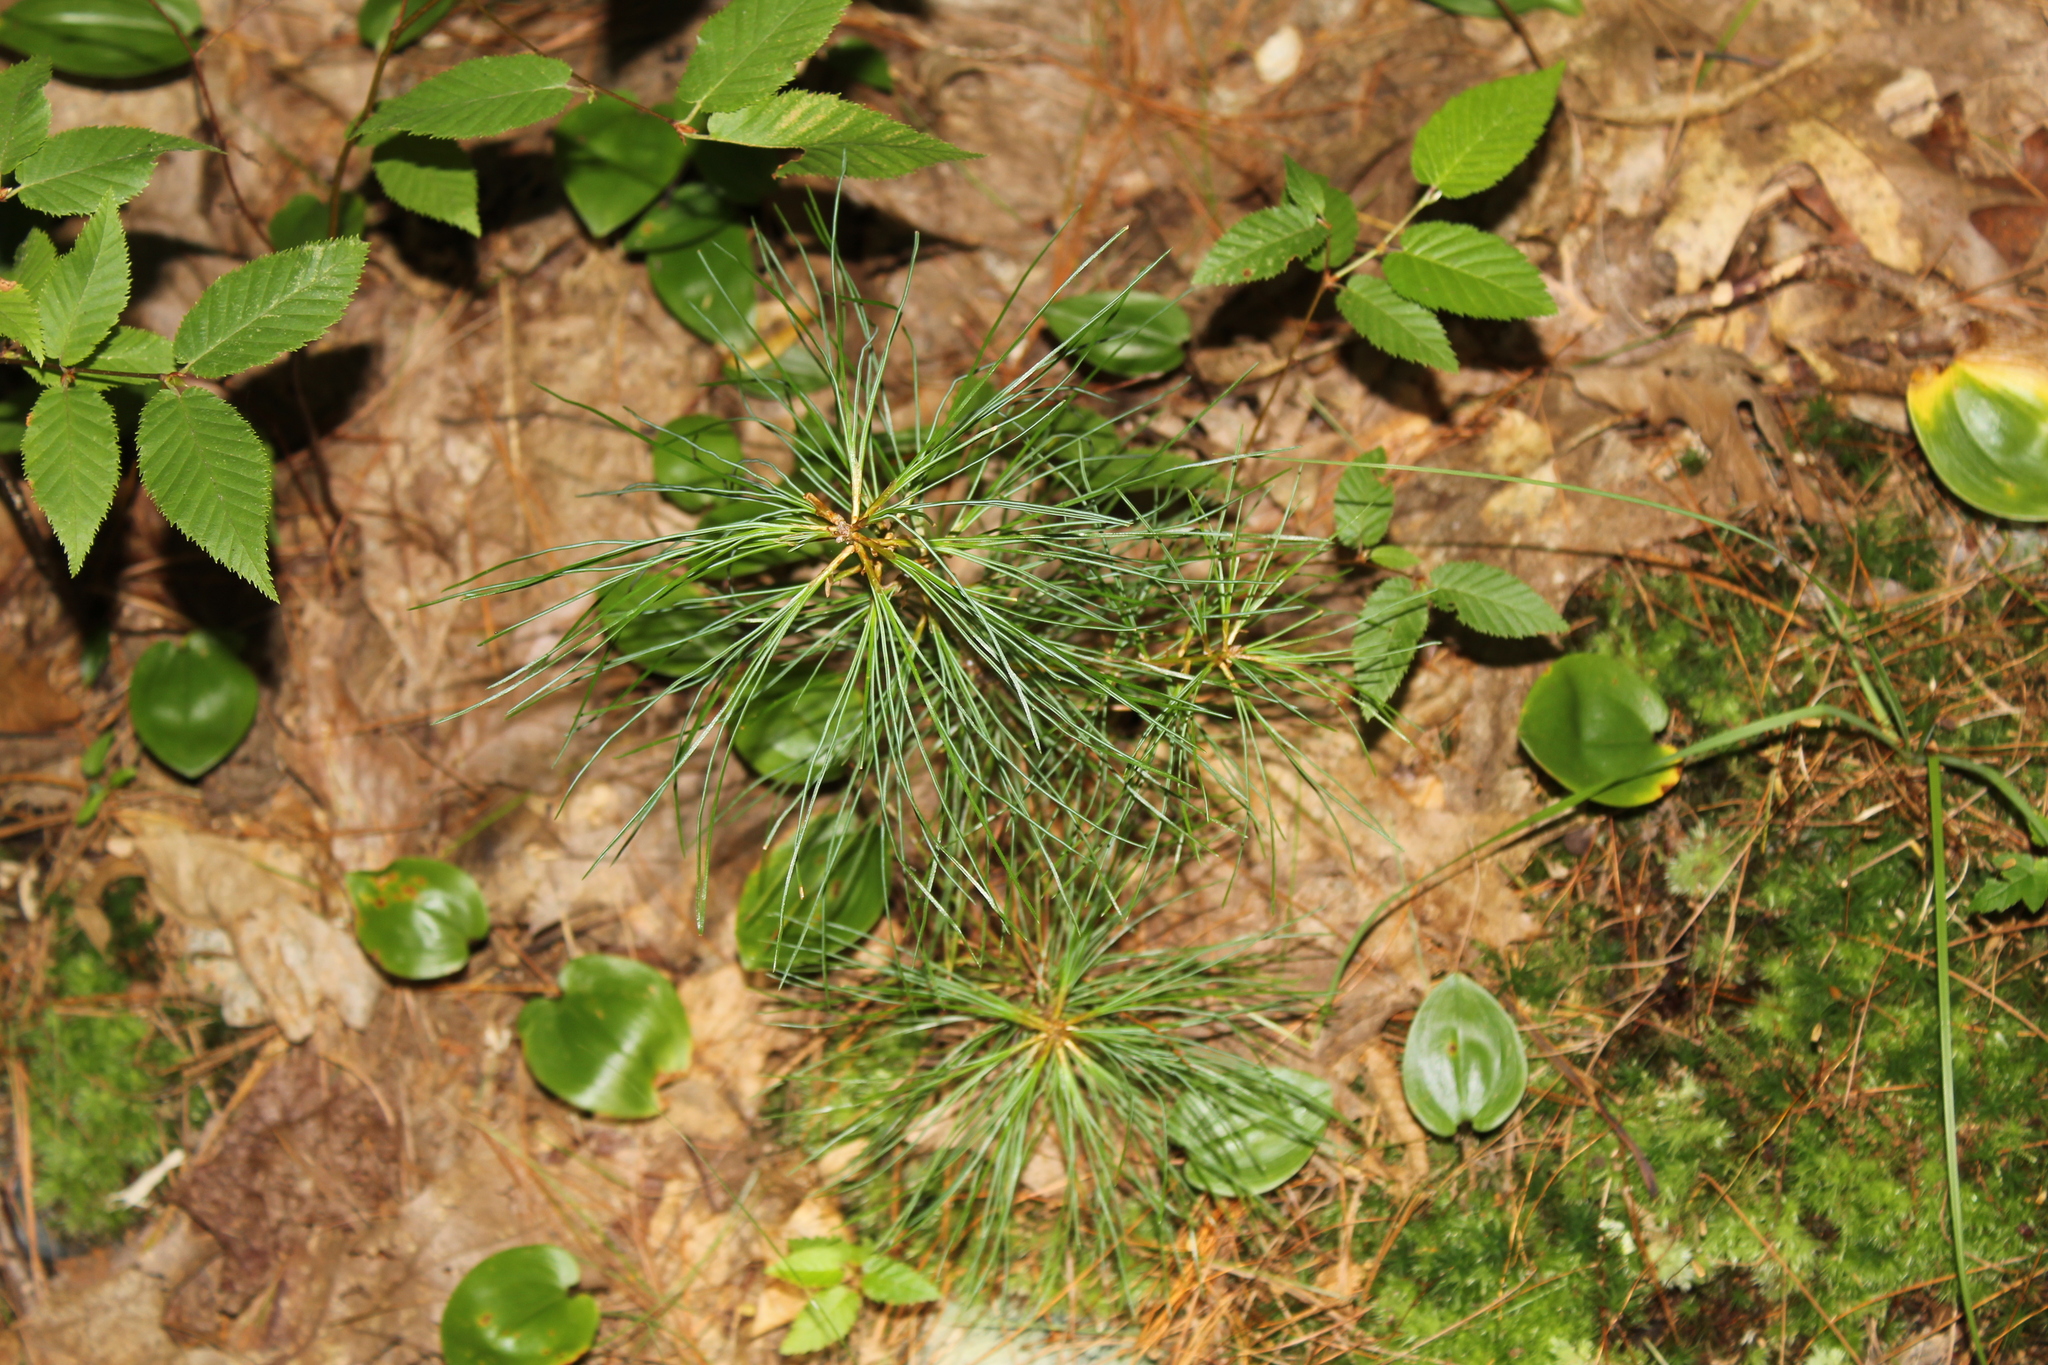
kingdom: Plantae
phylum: Tracheophyta
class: Pinopsida
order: Pinales
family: Pinaceae
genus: Pinus
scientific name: Pinus strobus
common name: Weymouth pine
